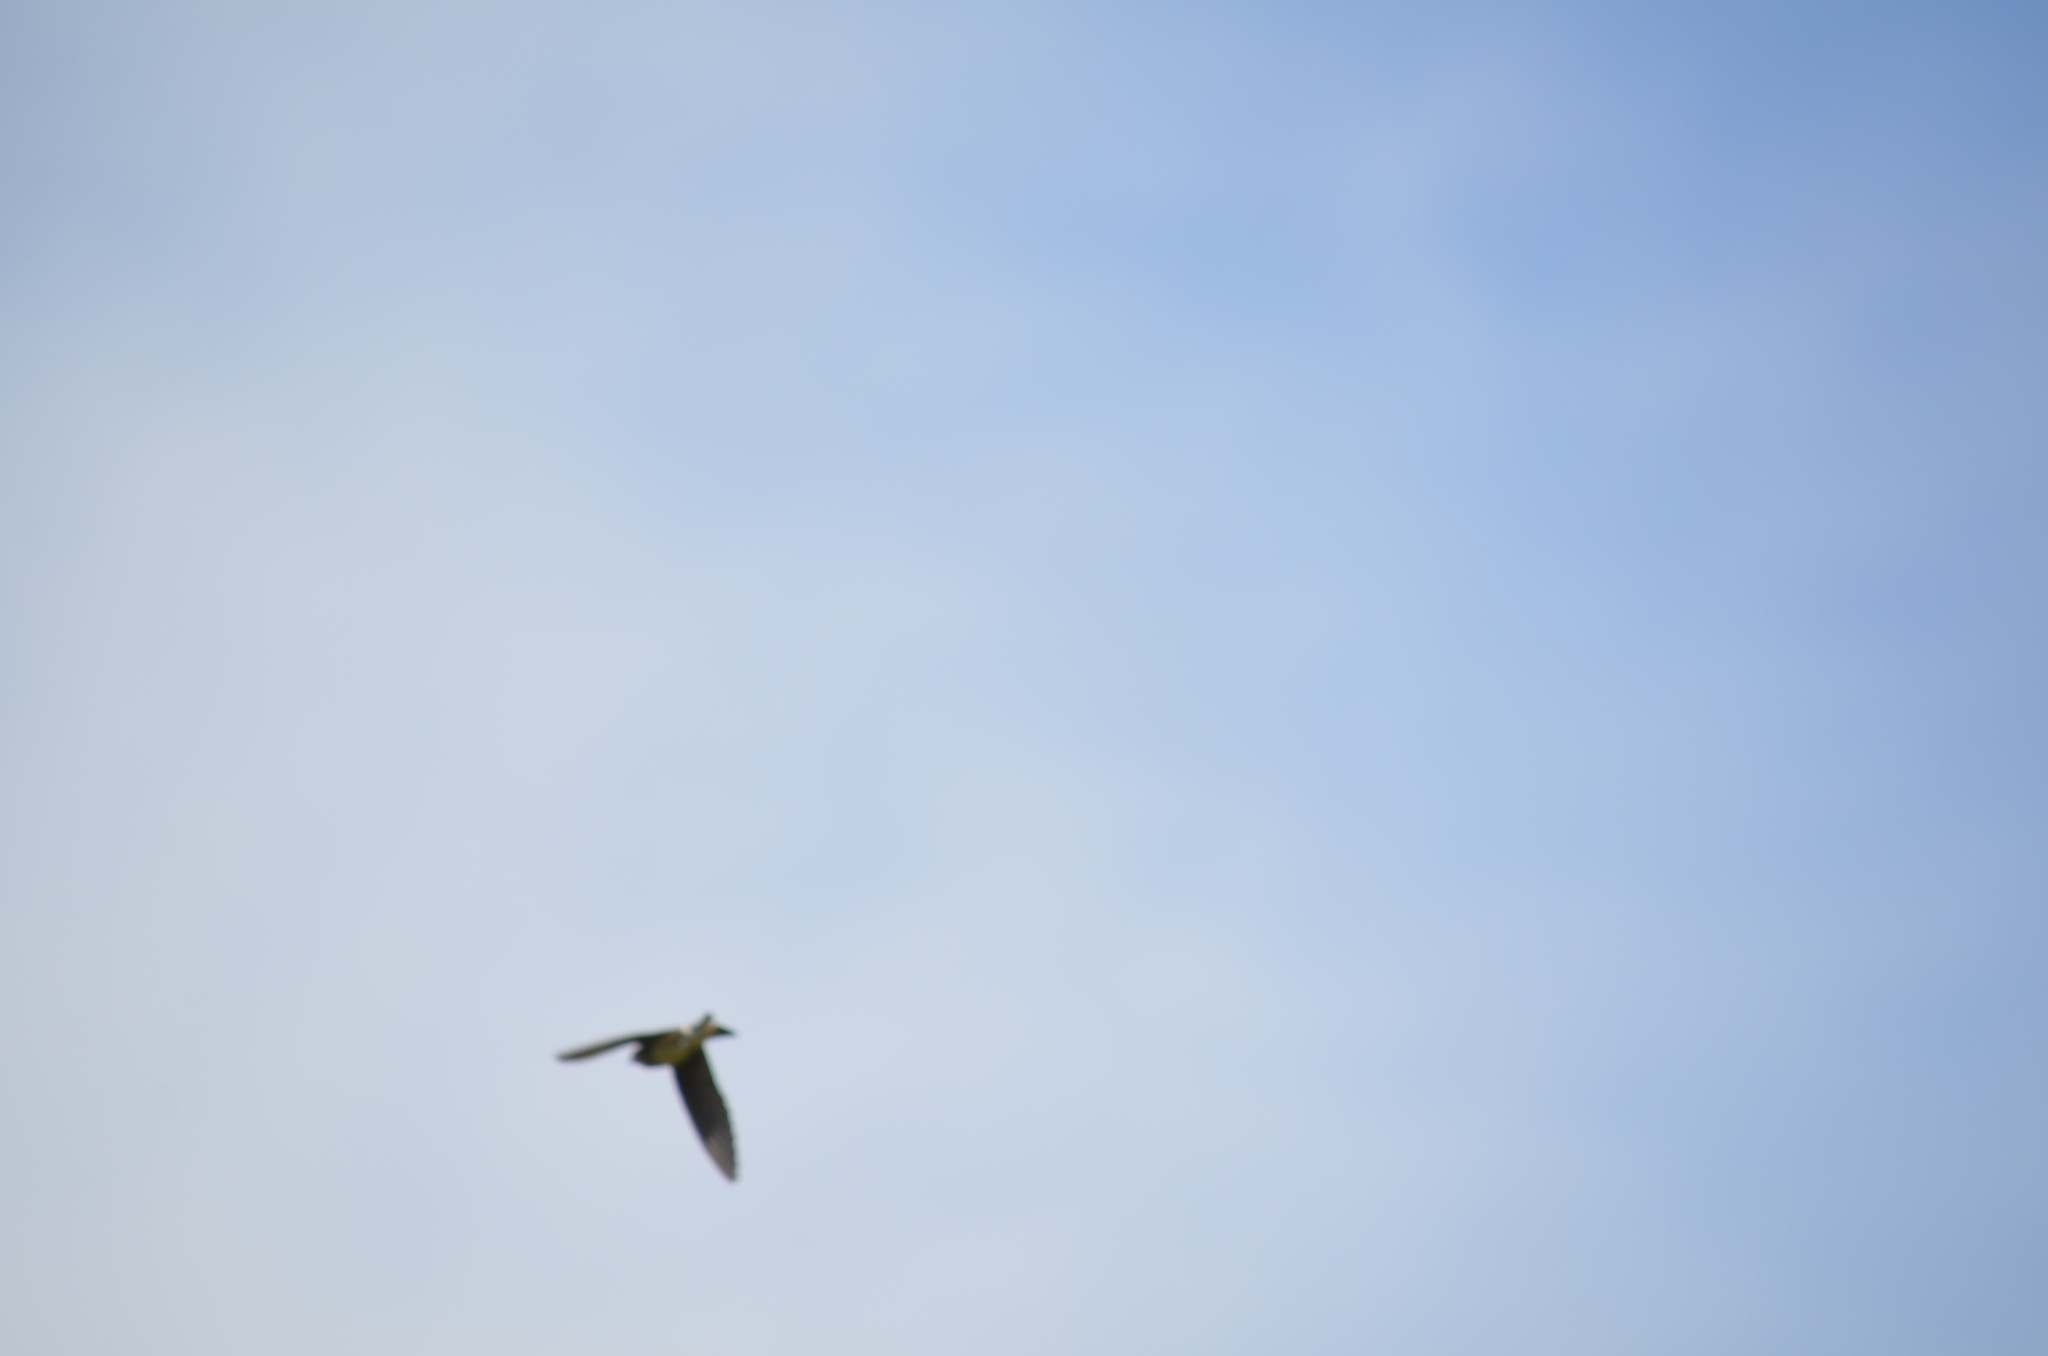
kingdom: Animalia
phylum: Chordata
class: Aves
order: Passeriformes
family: Hirundinidae
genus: Progne
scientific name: Progne subis
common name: Purple martin
